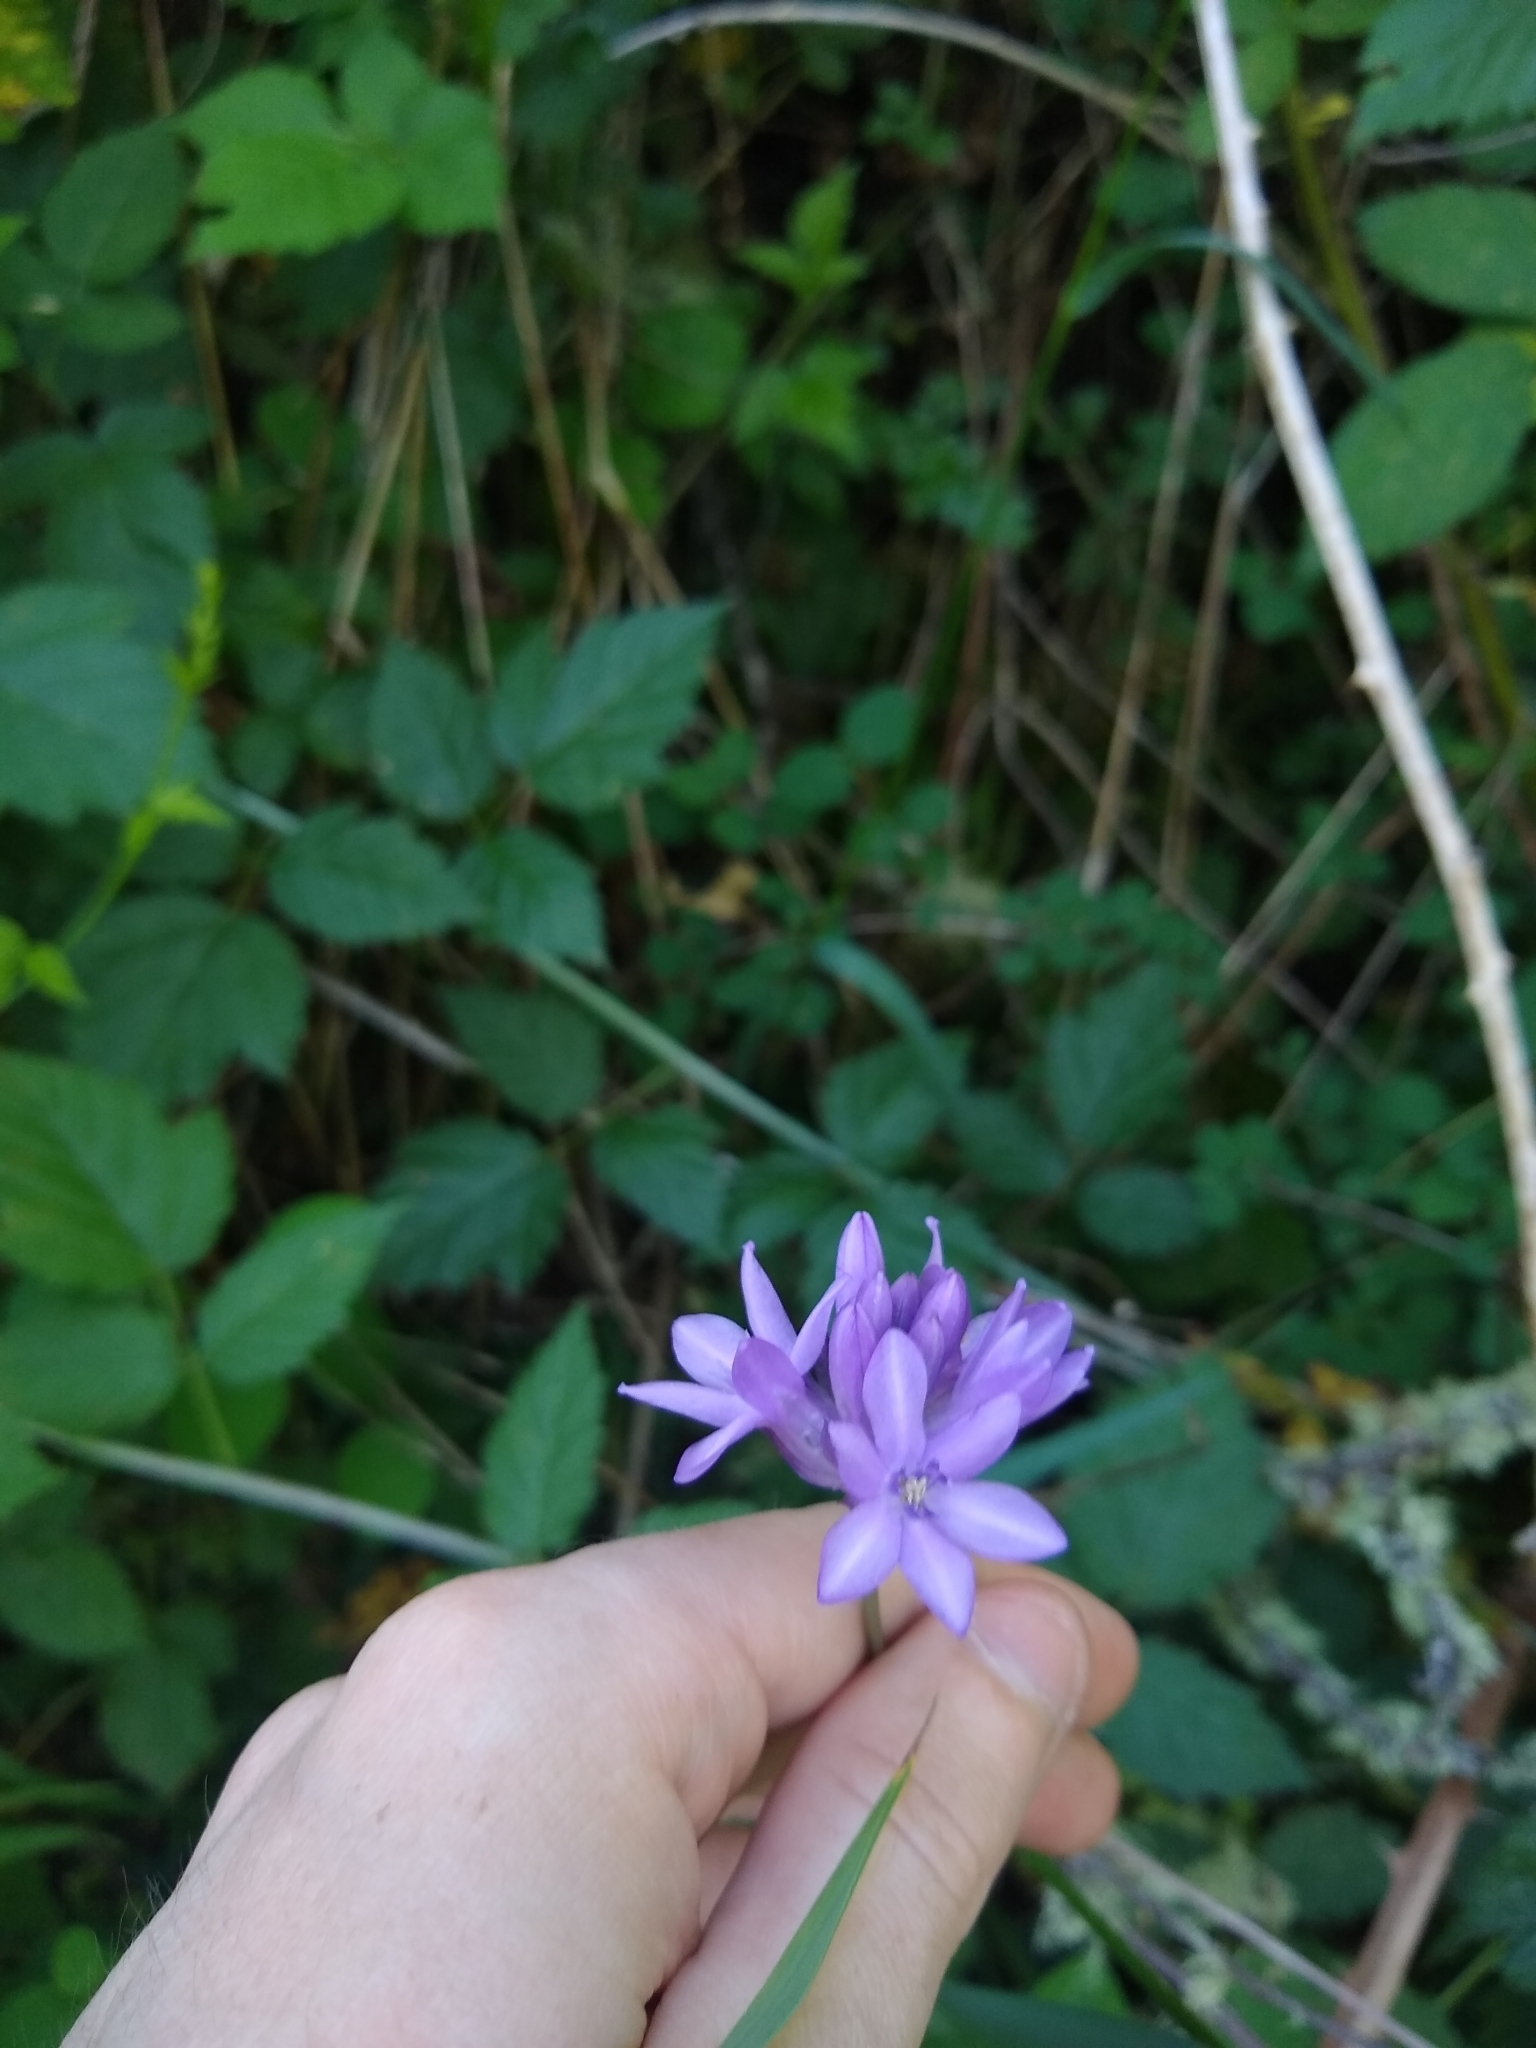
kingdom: Plantae
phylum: Tracheophyta
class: Liliopsida
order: Asparagales
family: Asparagaceae
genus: Dichelostemma
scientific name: Dichelostemma congestum
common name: Fork-tooth ookow
